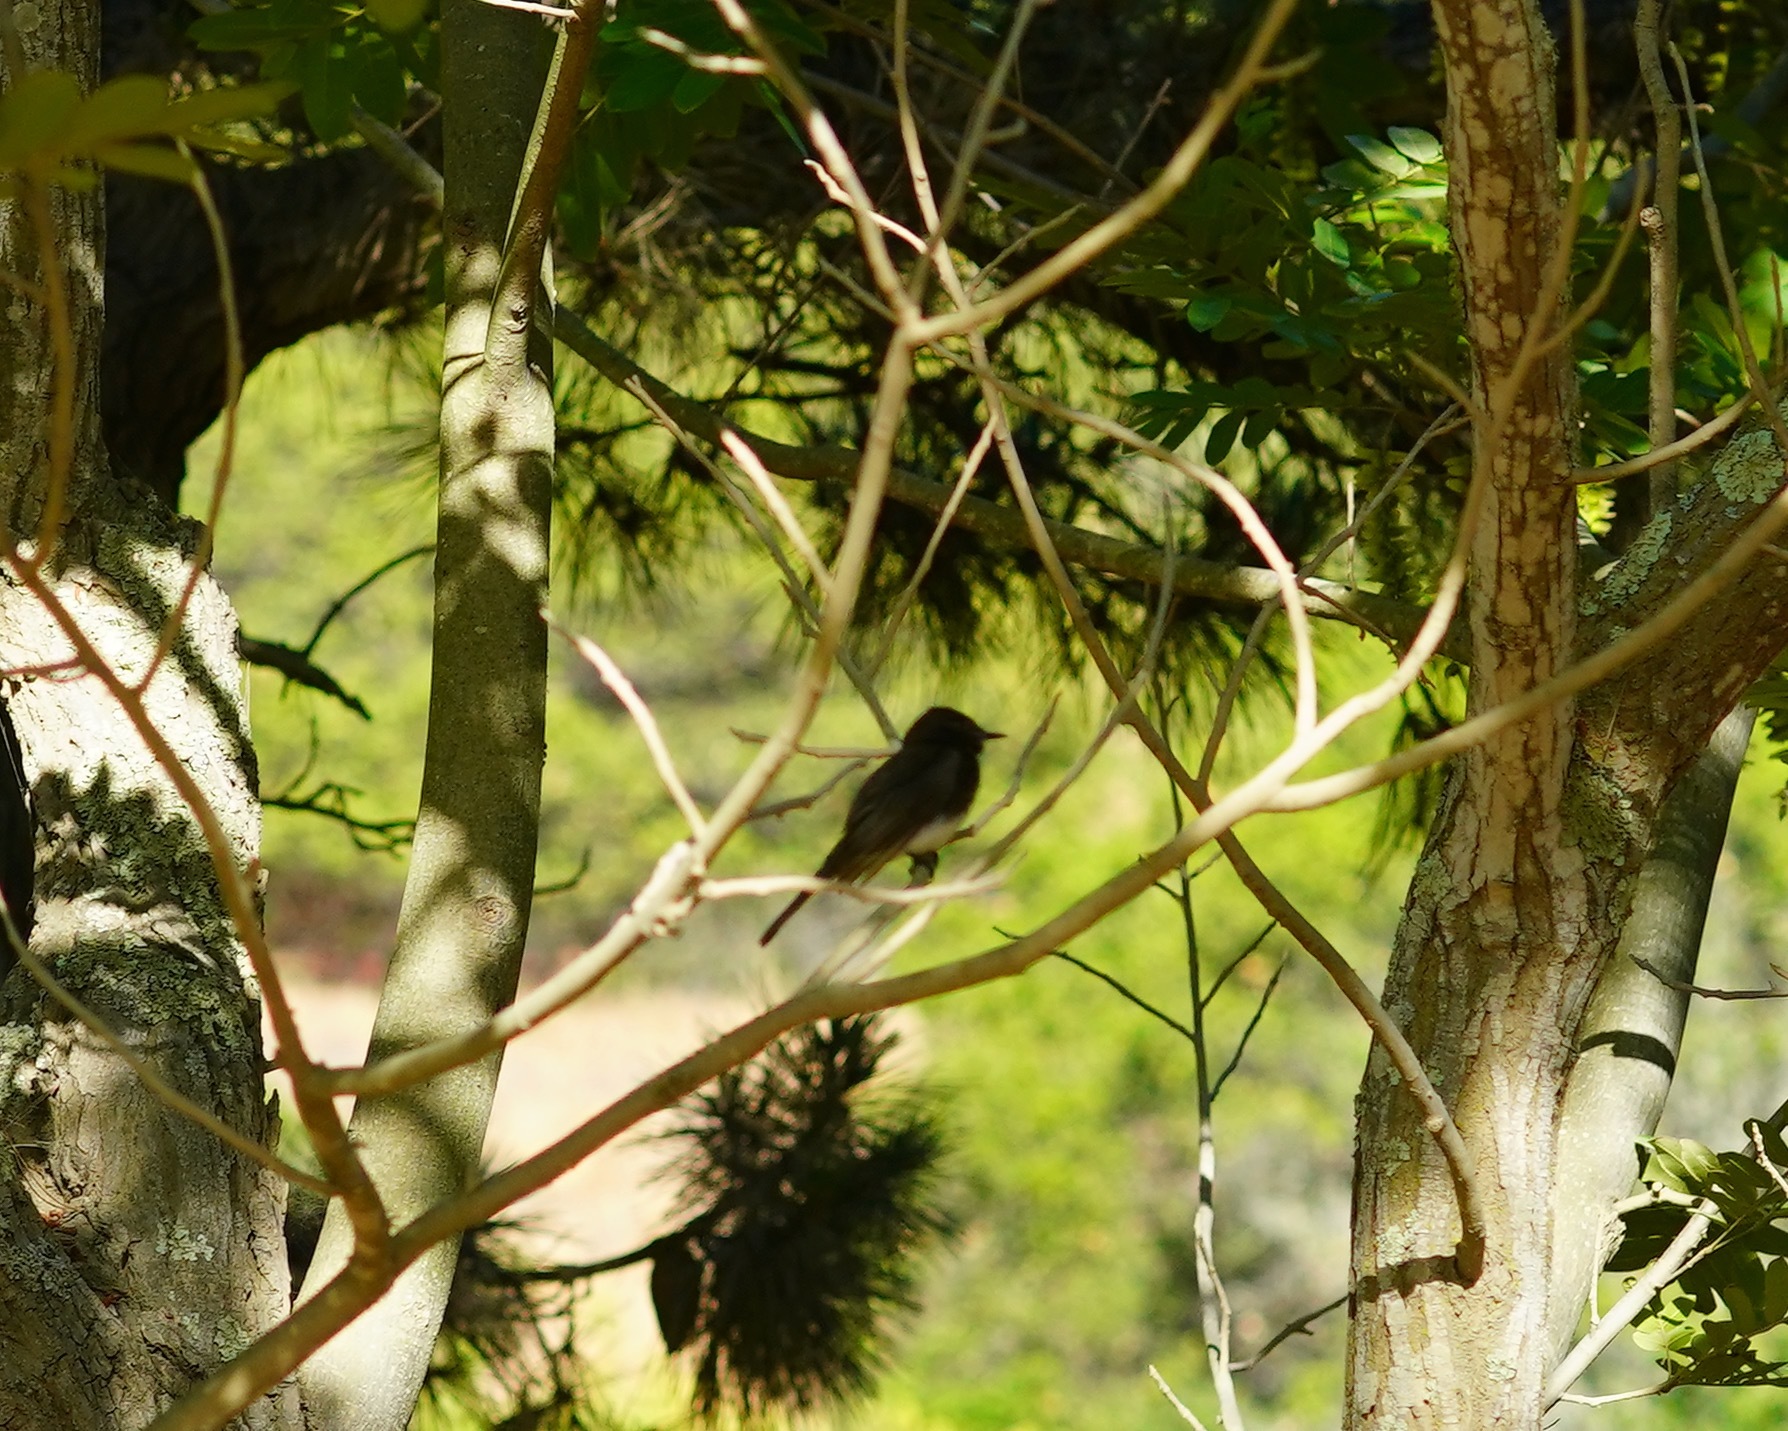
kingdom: Animalia
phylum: Chordata
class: Aves
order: Passeriformes
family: Tyrannidae
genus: Sayornis
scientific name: Sayornis nigricans
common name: Black phoebe
